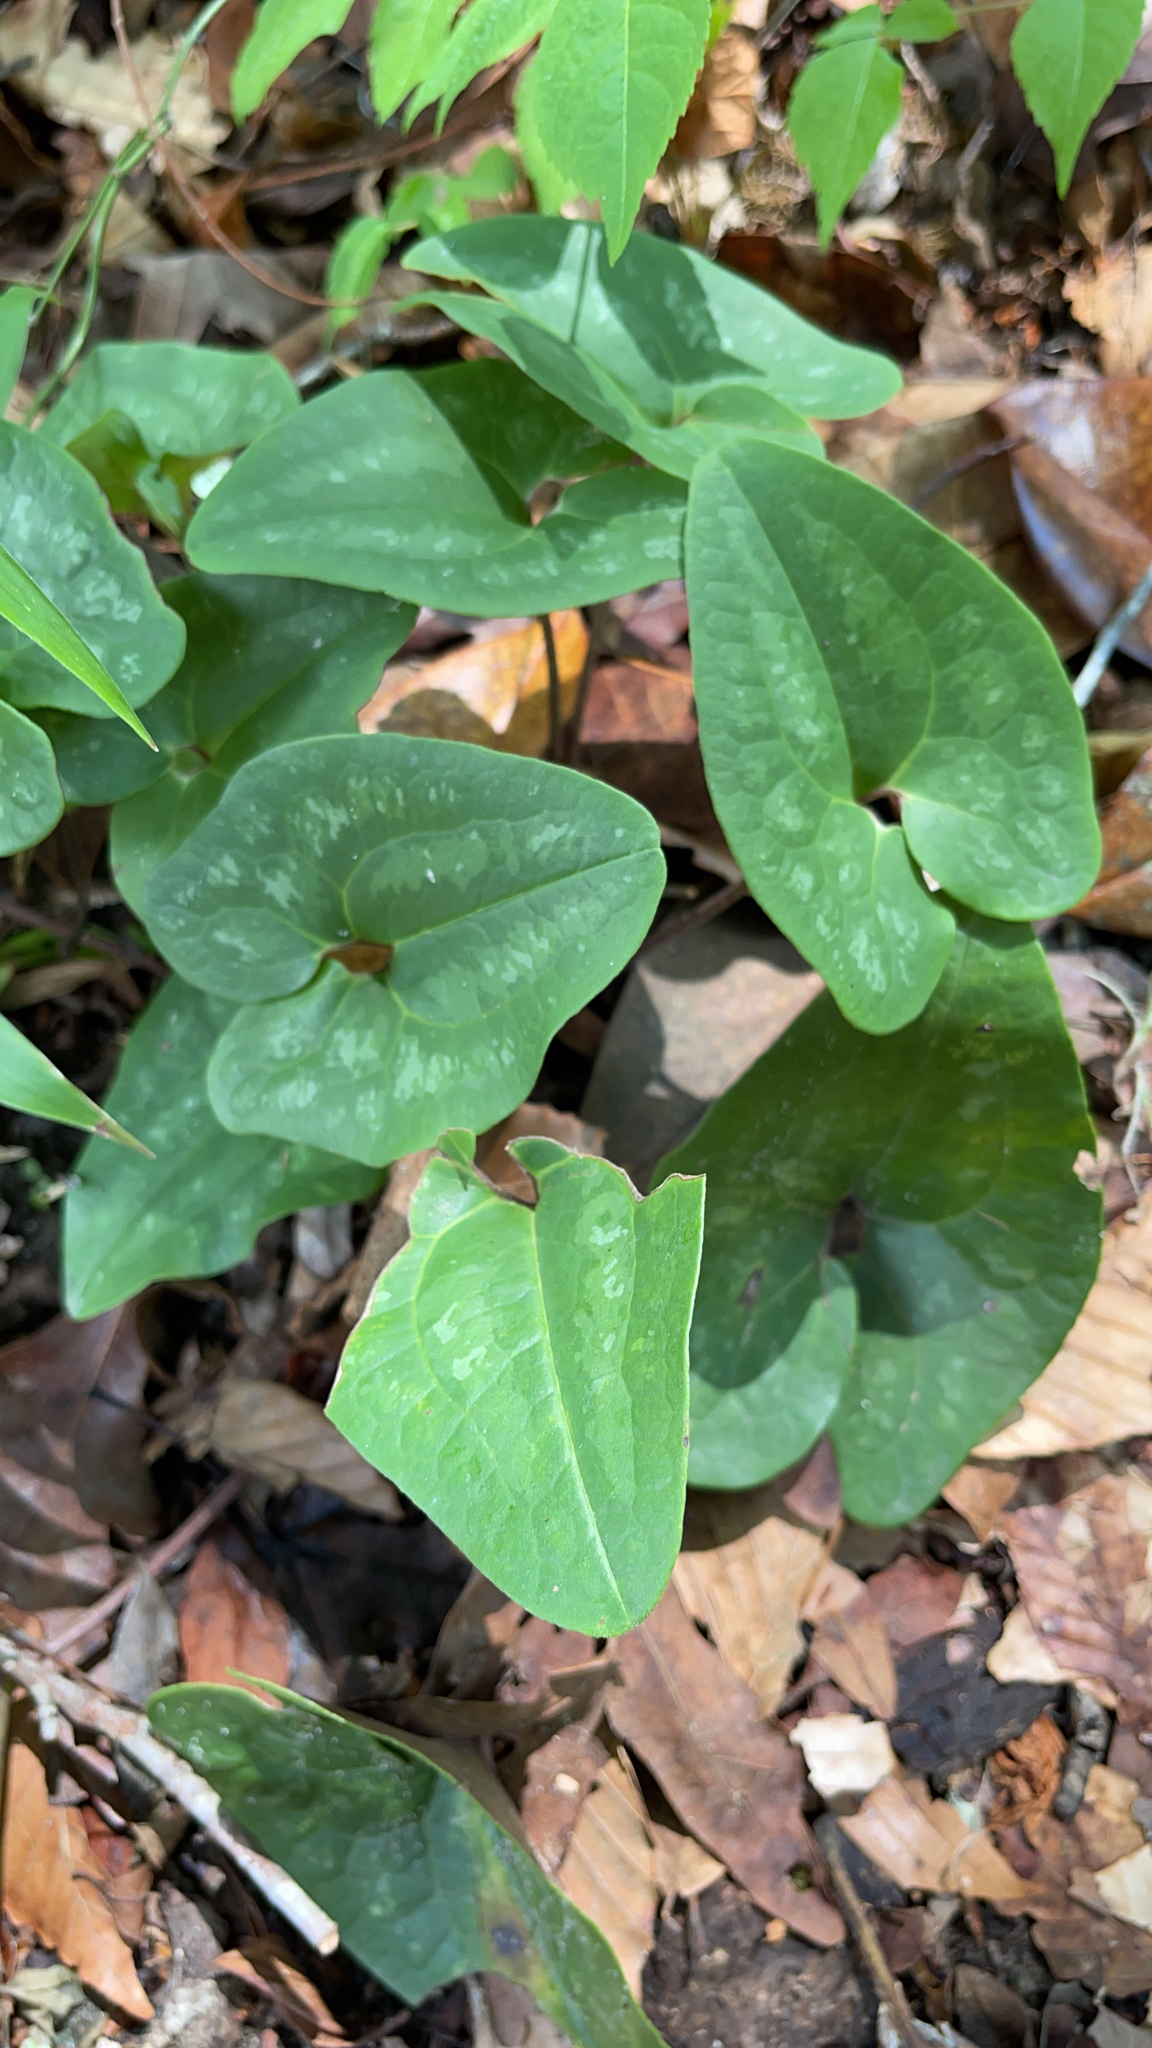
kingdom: Plantae
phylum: Tracheophyta
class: Magnoliopsida
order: Piperales
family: Aristolochiaceae
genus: Hexastylis
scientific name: Hexastylis arifolia
